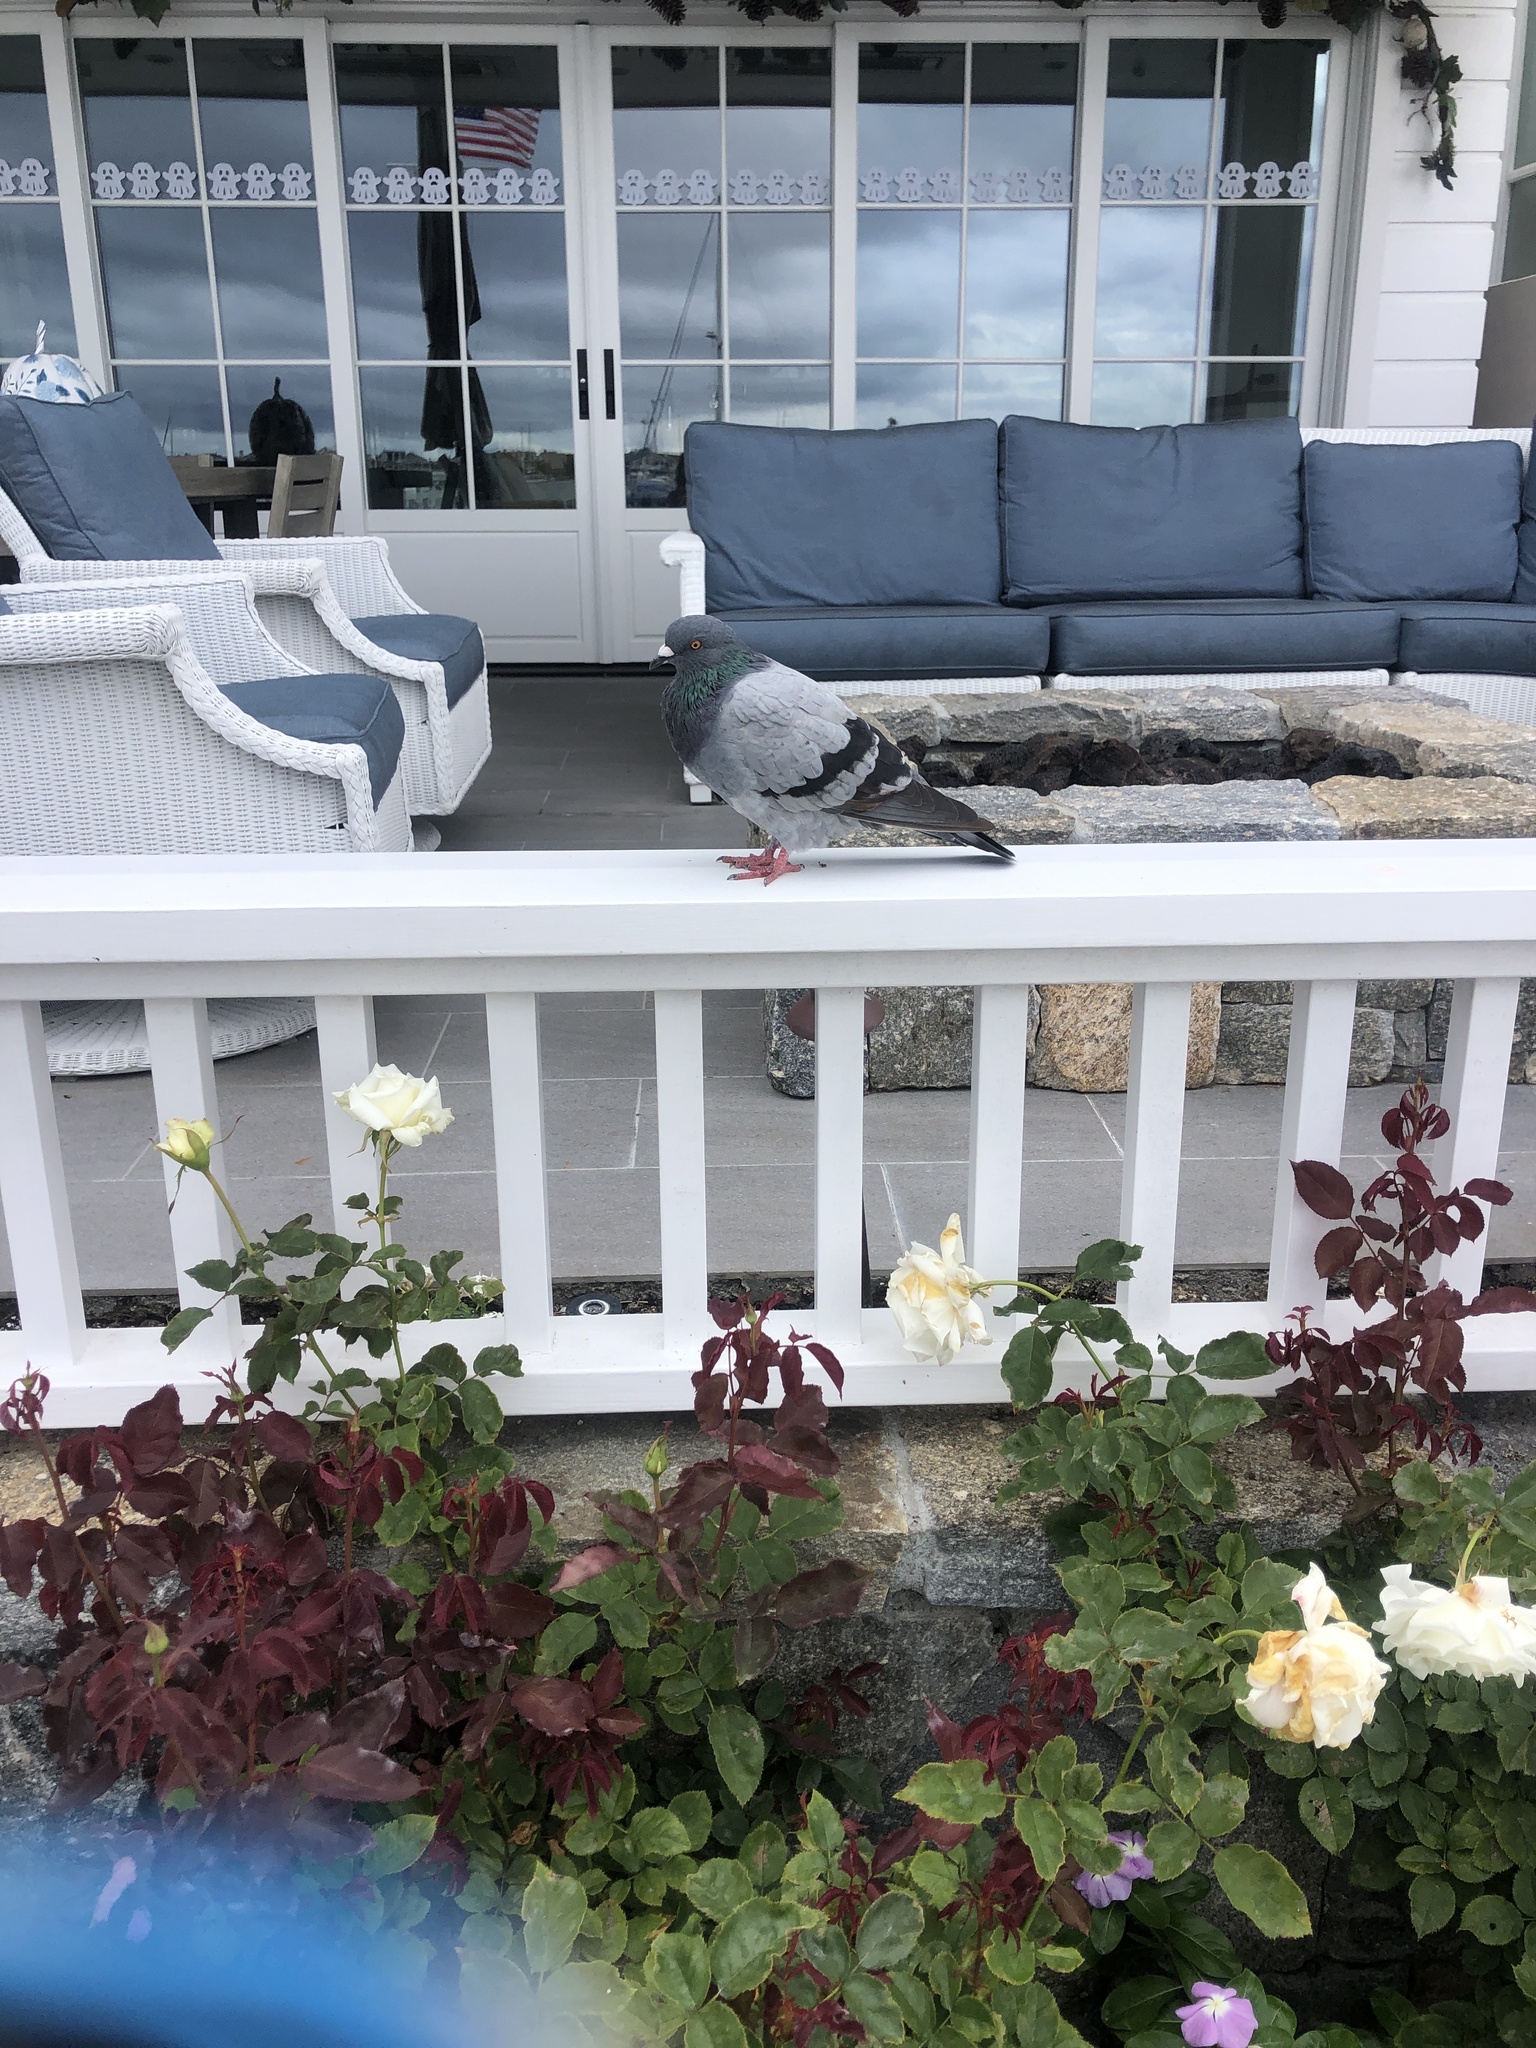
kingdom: Animalia
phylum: Chordata
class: Aves
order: Columbiformes
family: Columbidae
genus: Columba
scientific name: Columba livia
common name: Rock pigeon
